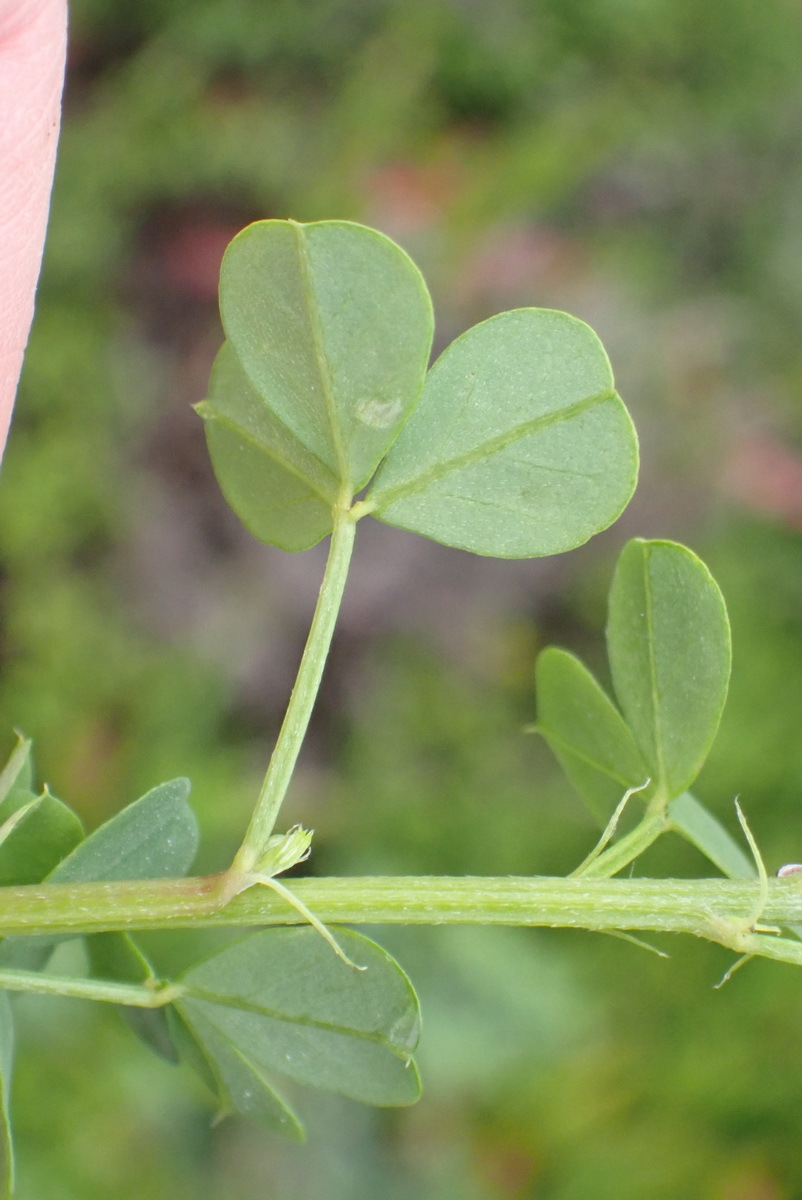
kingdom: Plantae
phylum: Tracheophyta
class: Magnoliopsida
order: Fabales
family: Fabaceae
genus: Indigofera
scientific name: Indigofera erecta
